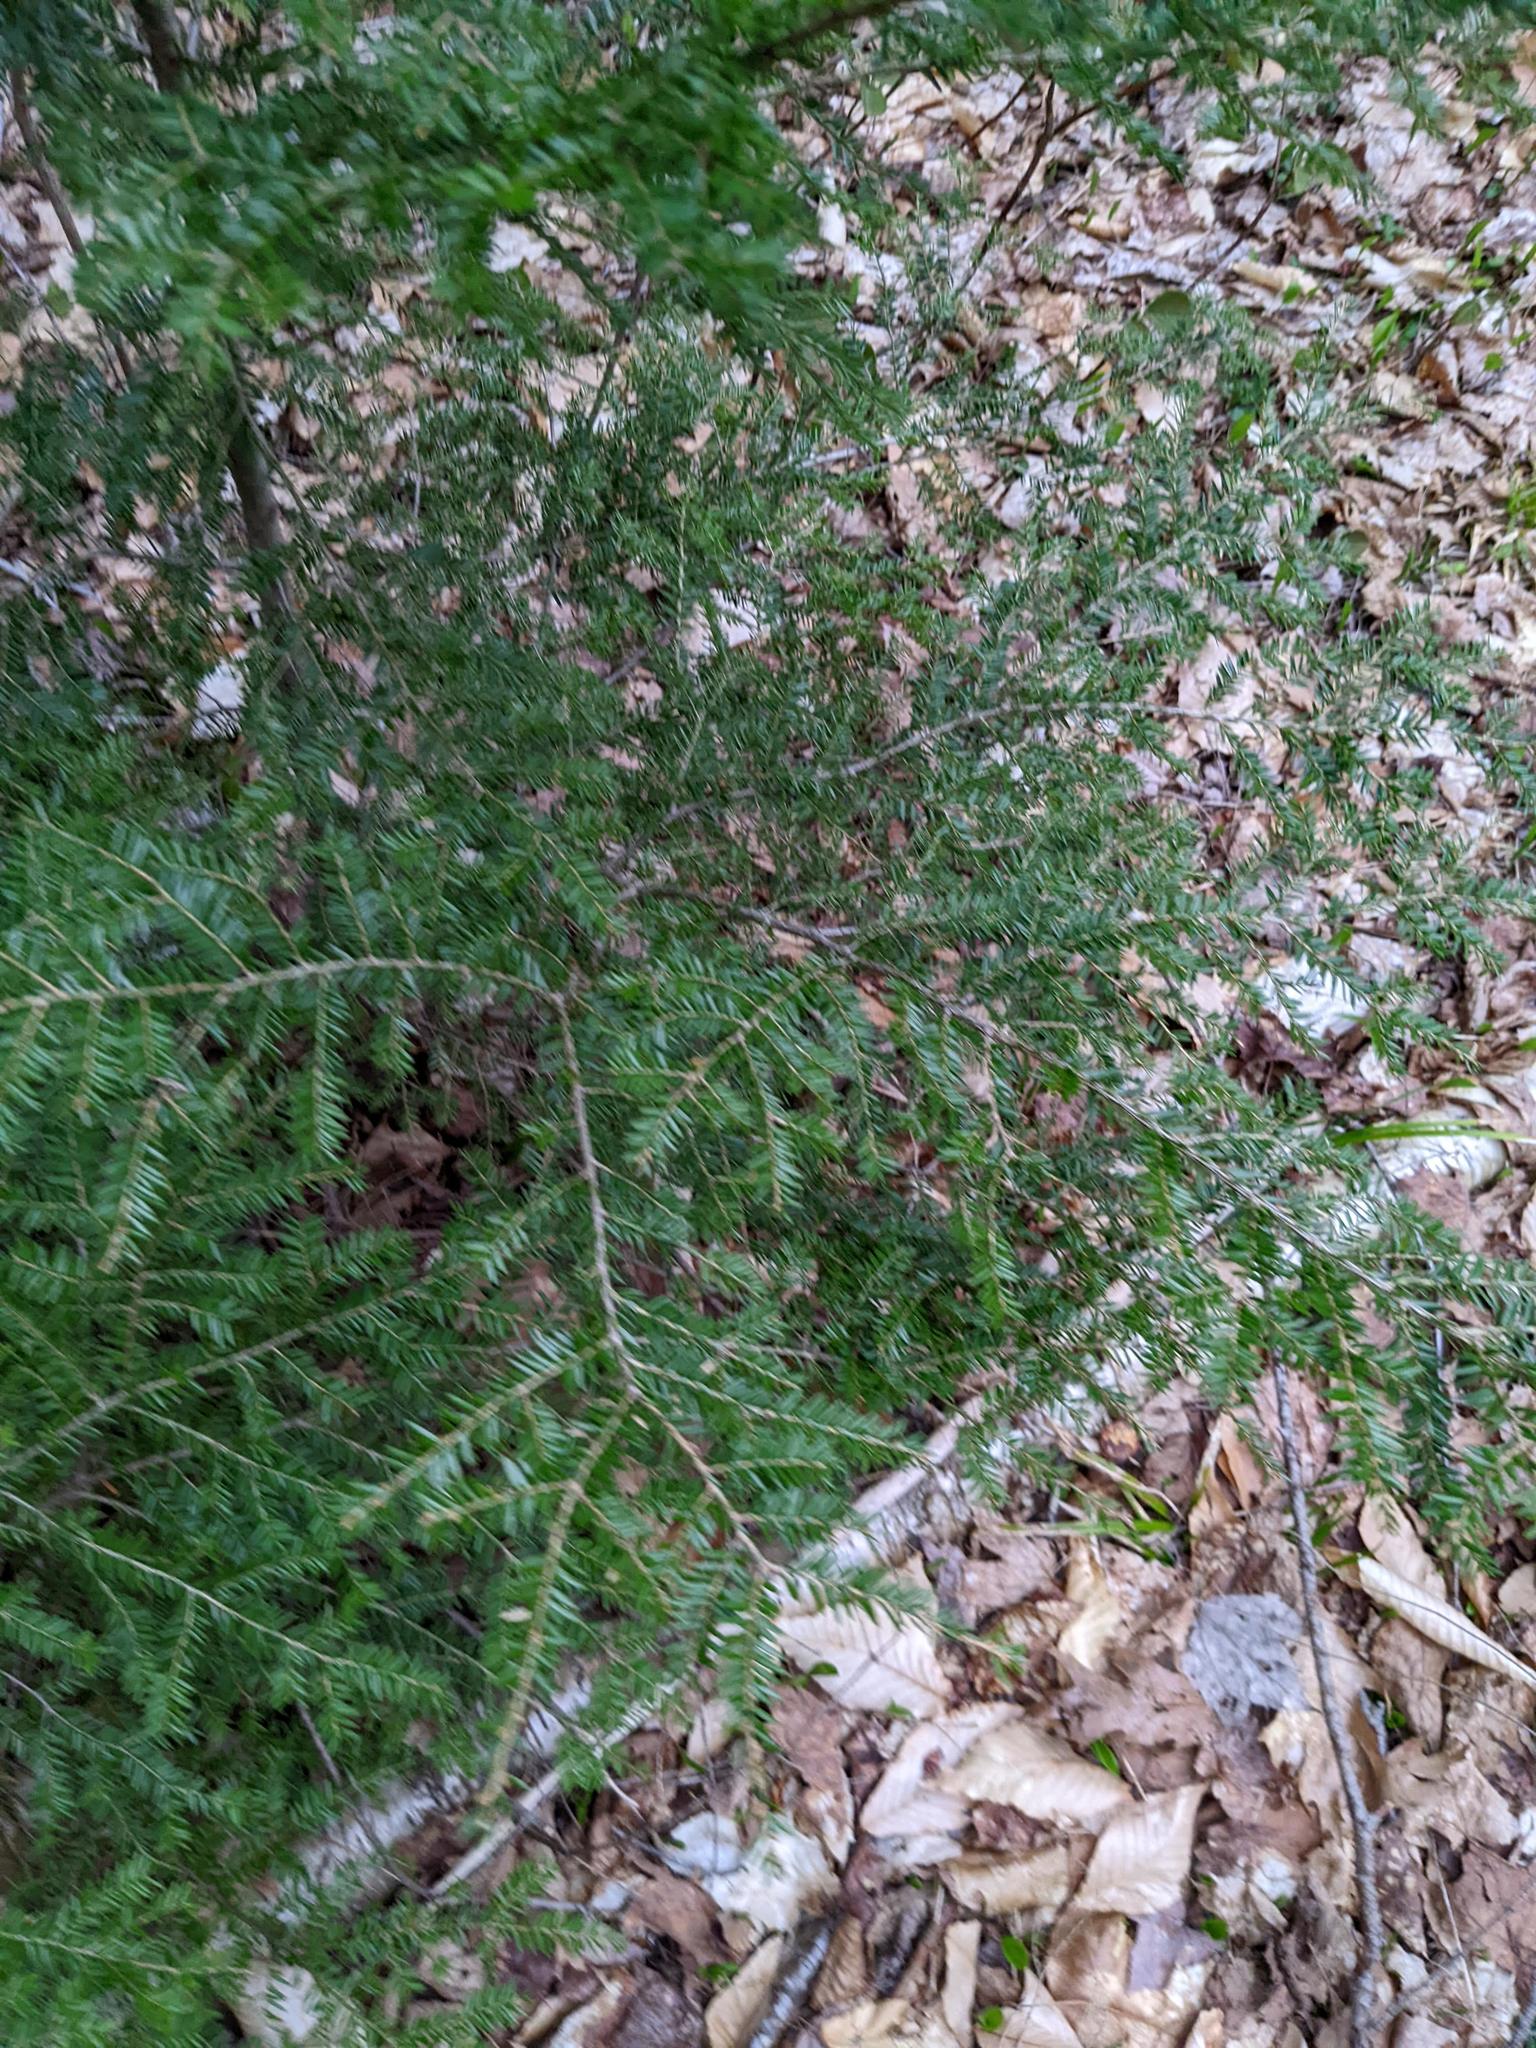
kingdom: Plantae
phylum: Tracheophyta
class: Pinopsida
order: Pinales
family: Pinaceae
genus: Tsuga
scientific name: Tsuga canadensis
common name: Eastern hemlock
